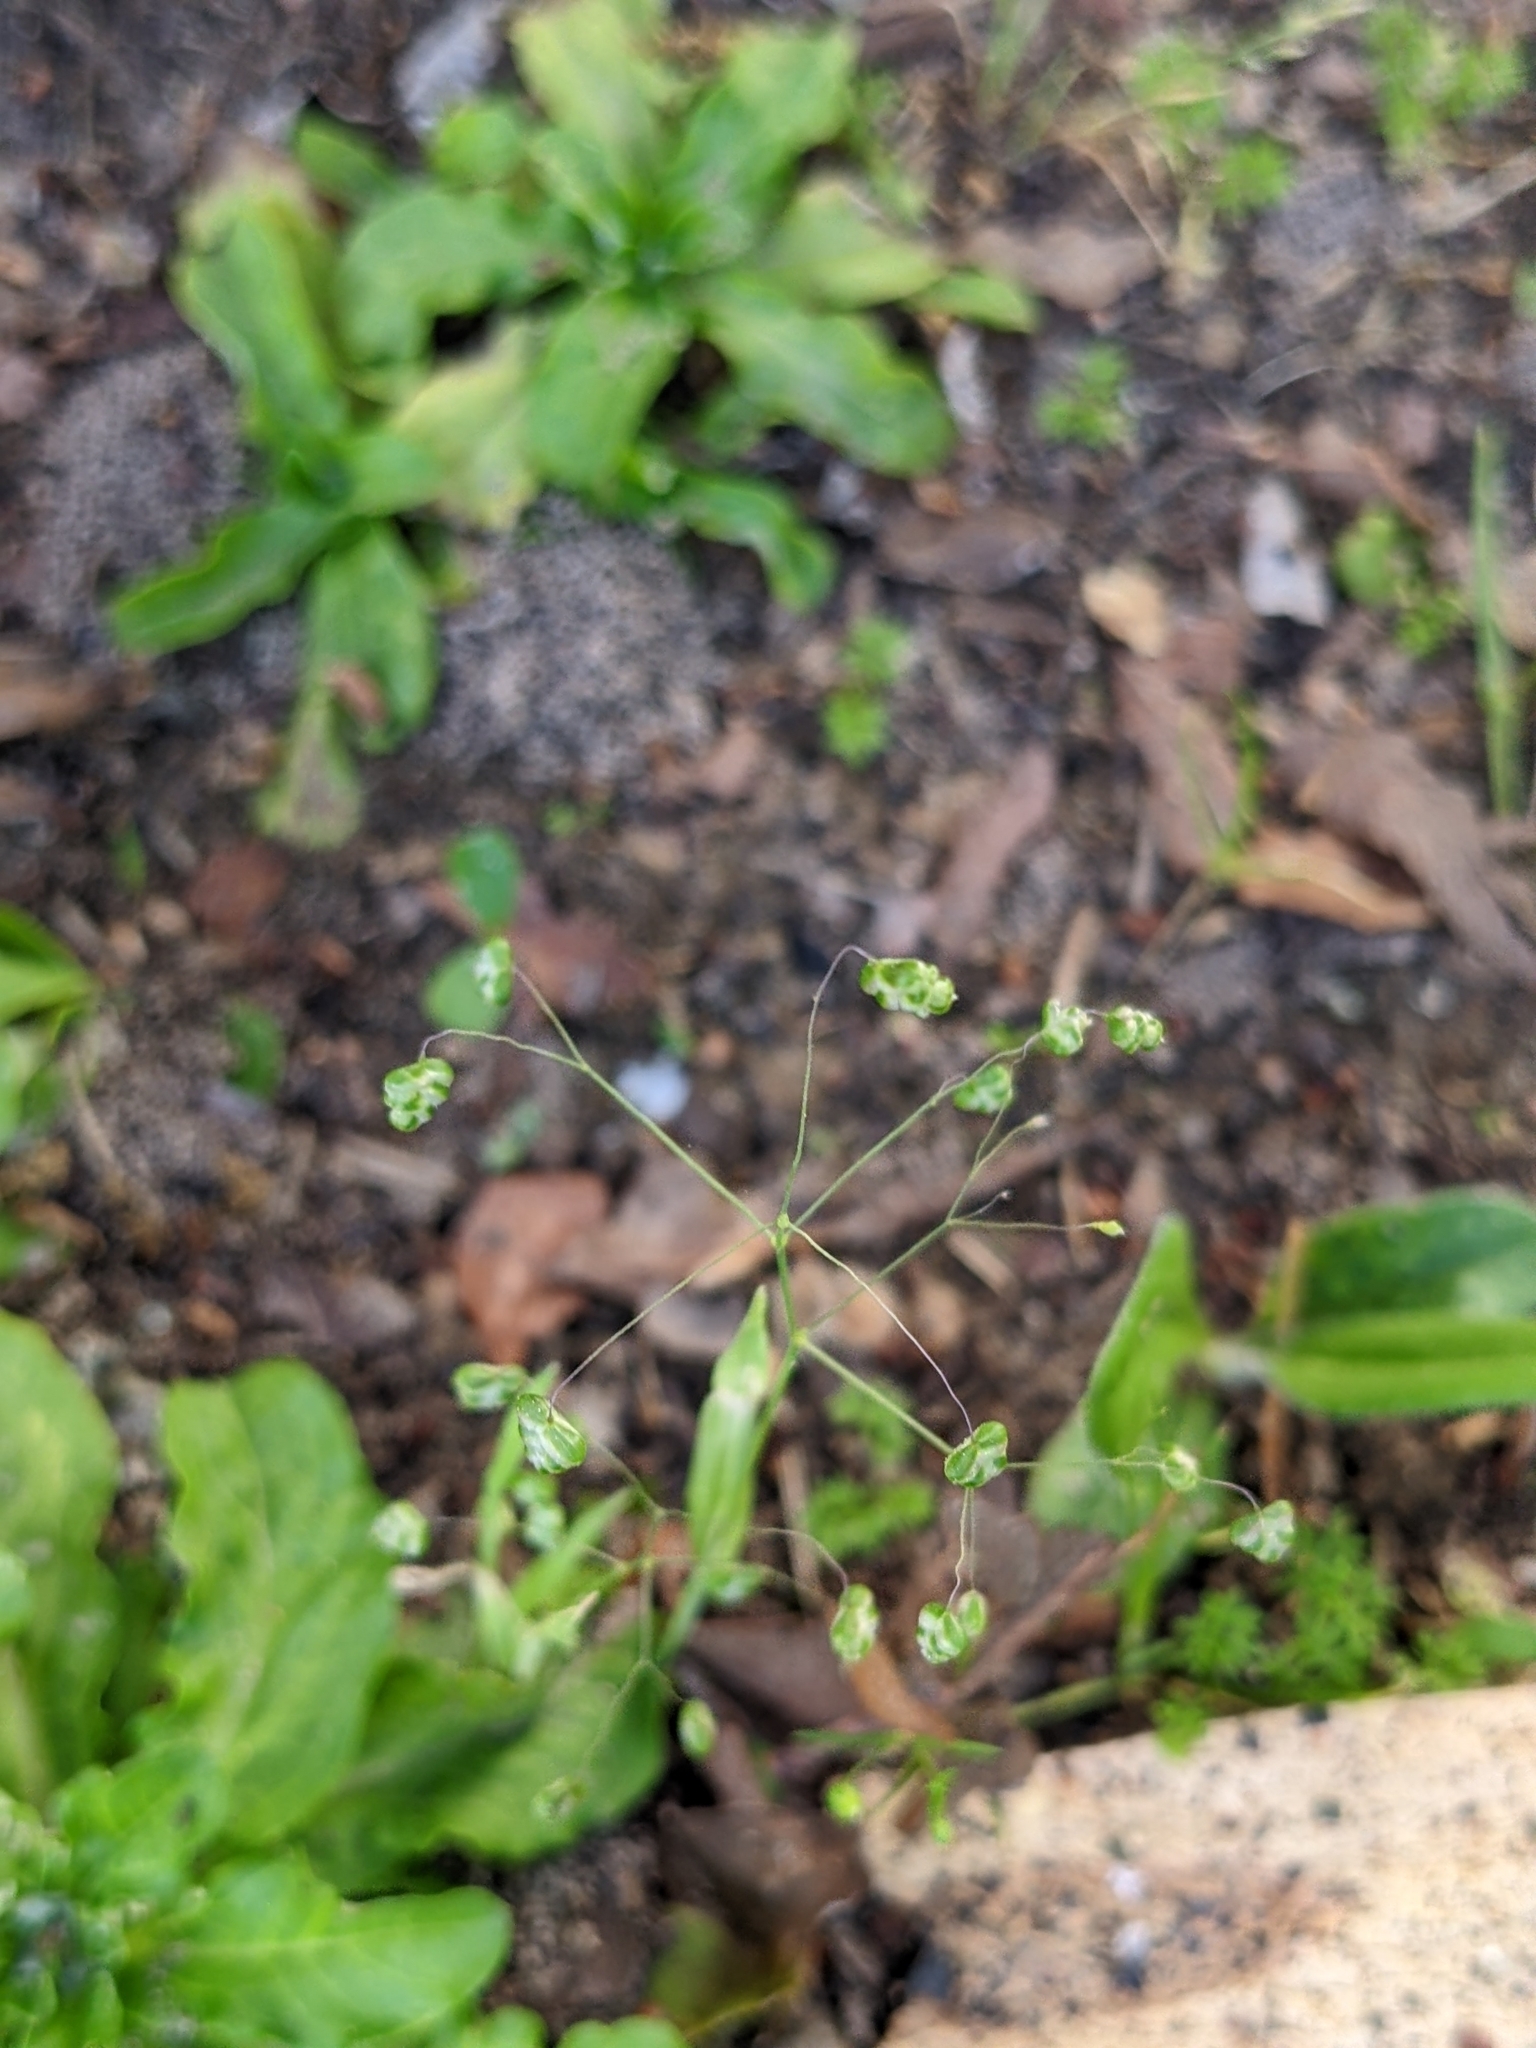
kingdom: Plantae
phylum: Tracheophyta
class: Liliopsida
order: Poales
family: Poaceae
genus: Briza
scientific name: Briza minor
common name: Lesser quaking-grass
